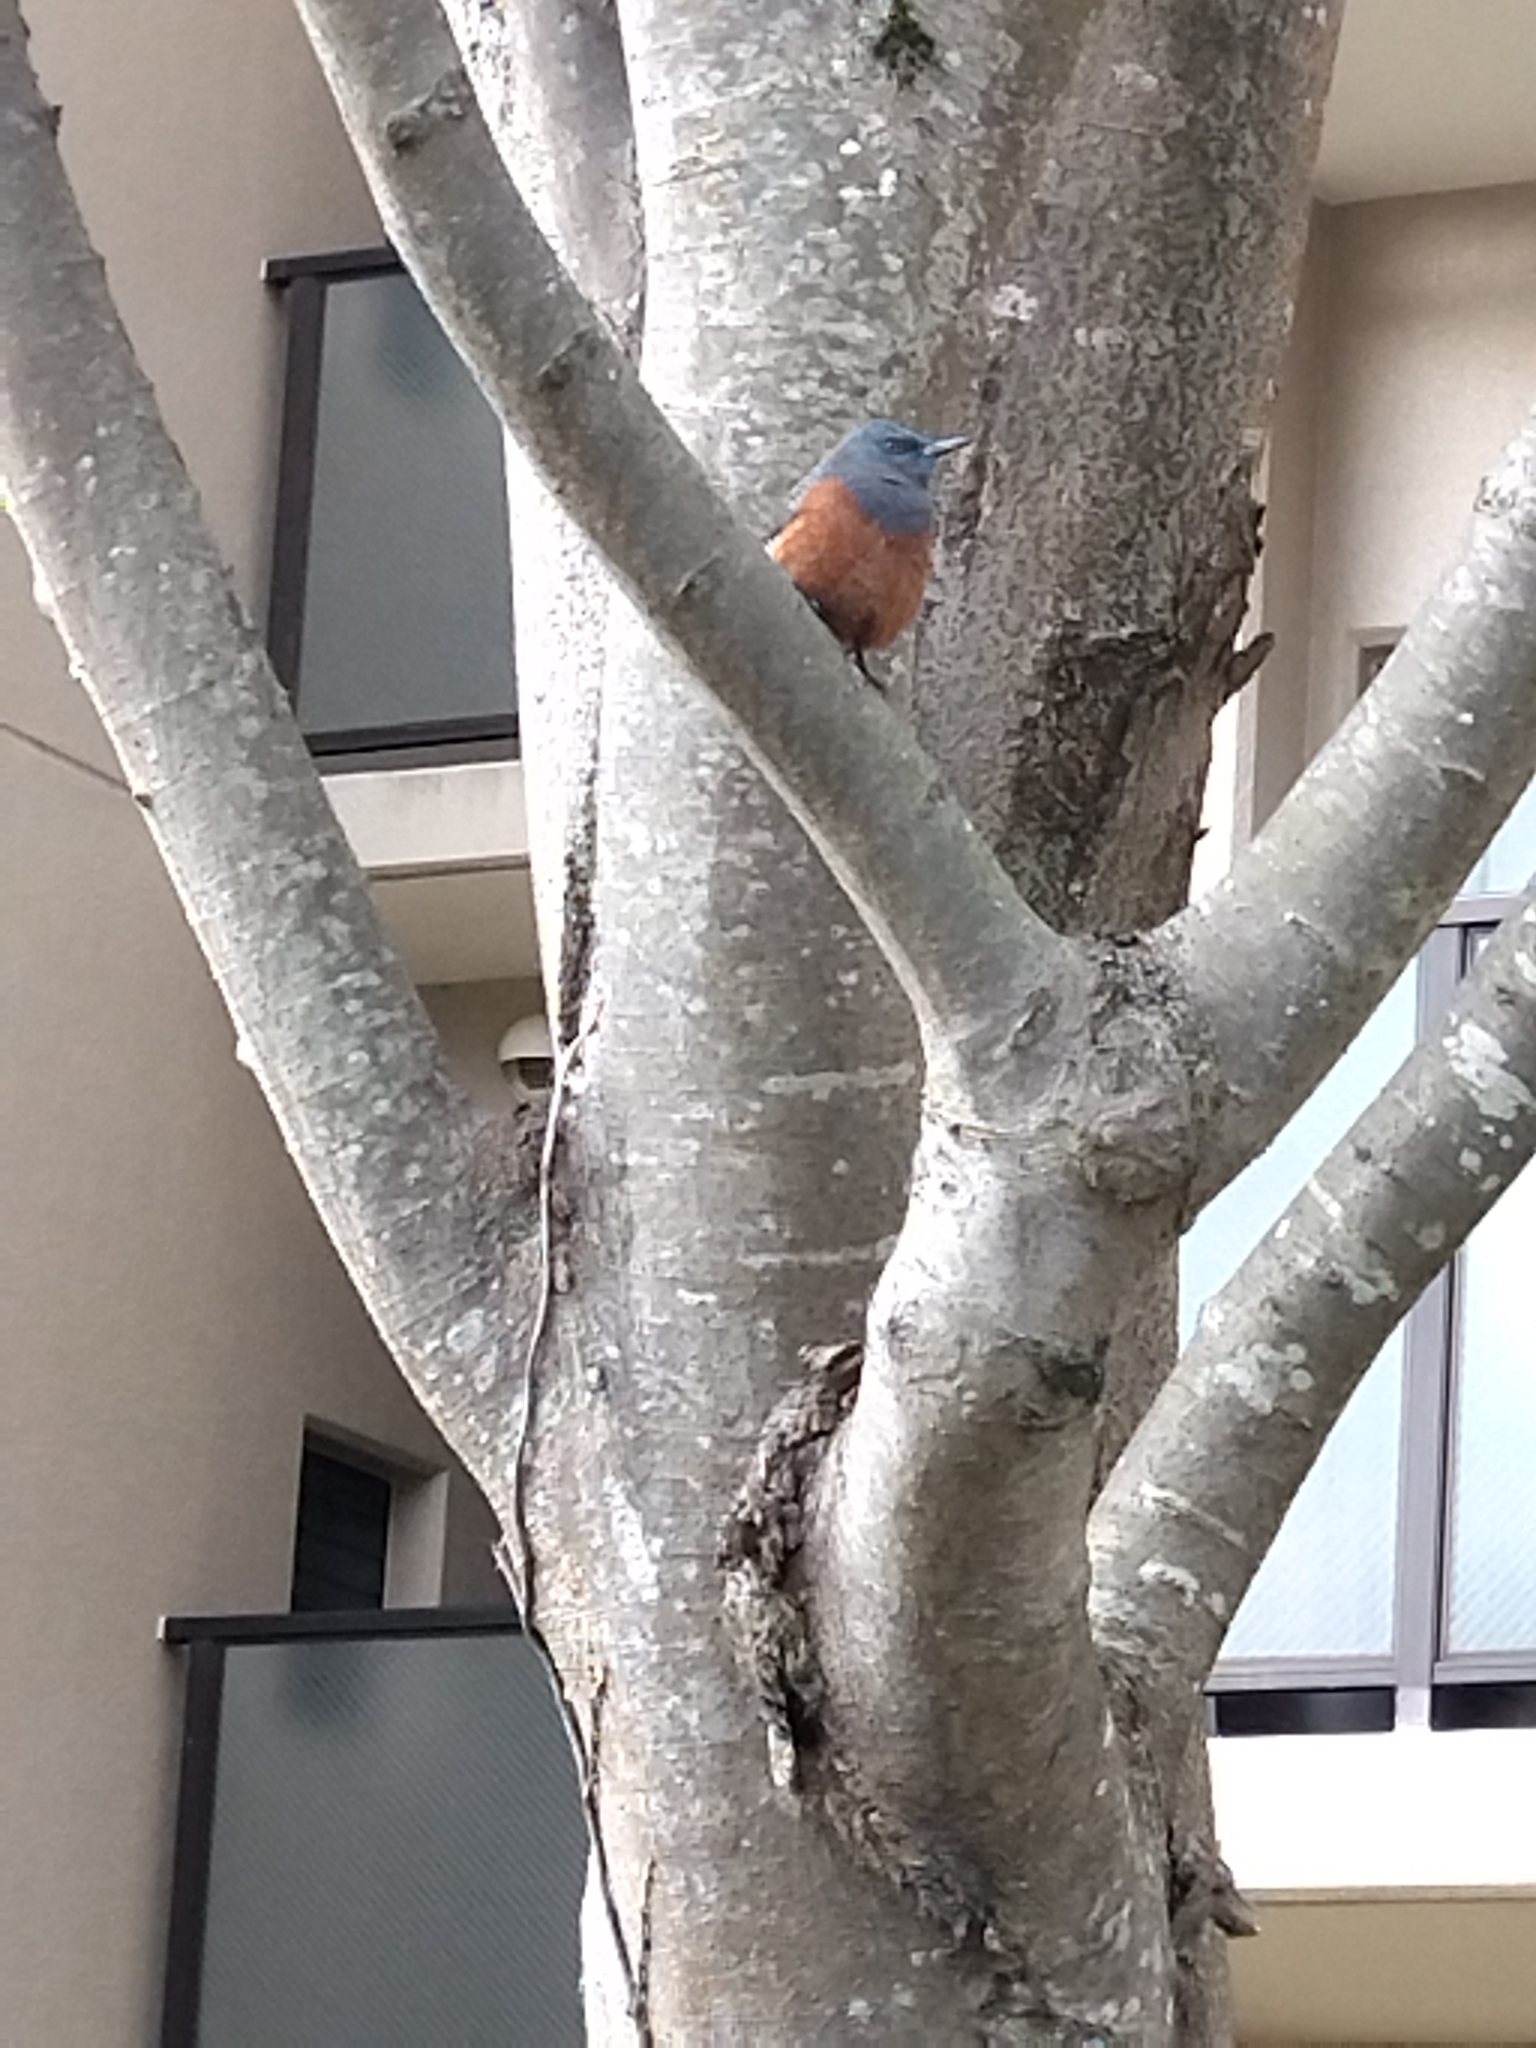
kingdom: Animalia
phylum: Chordata
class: Aves
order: Passeriformes
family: Muscicapidae
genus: Monticola
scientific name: Monticola solitarius
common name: Blue rock thrush
